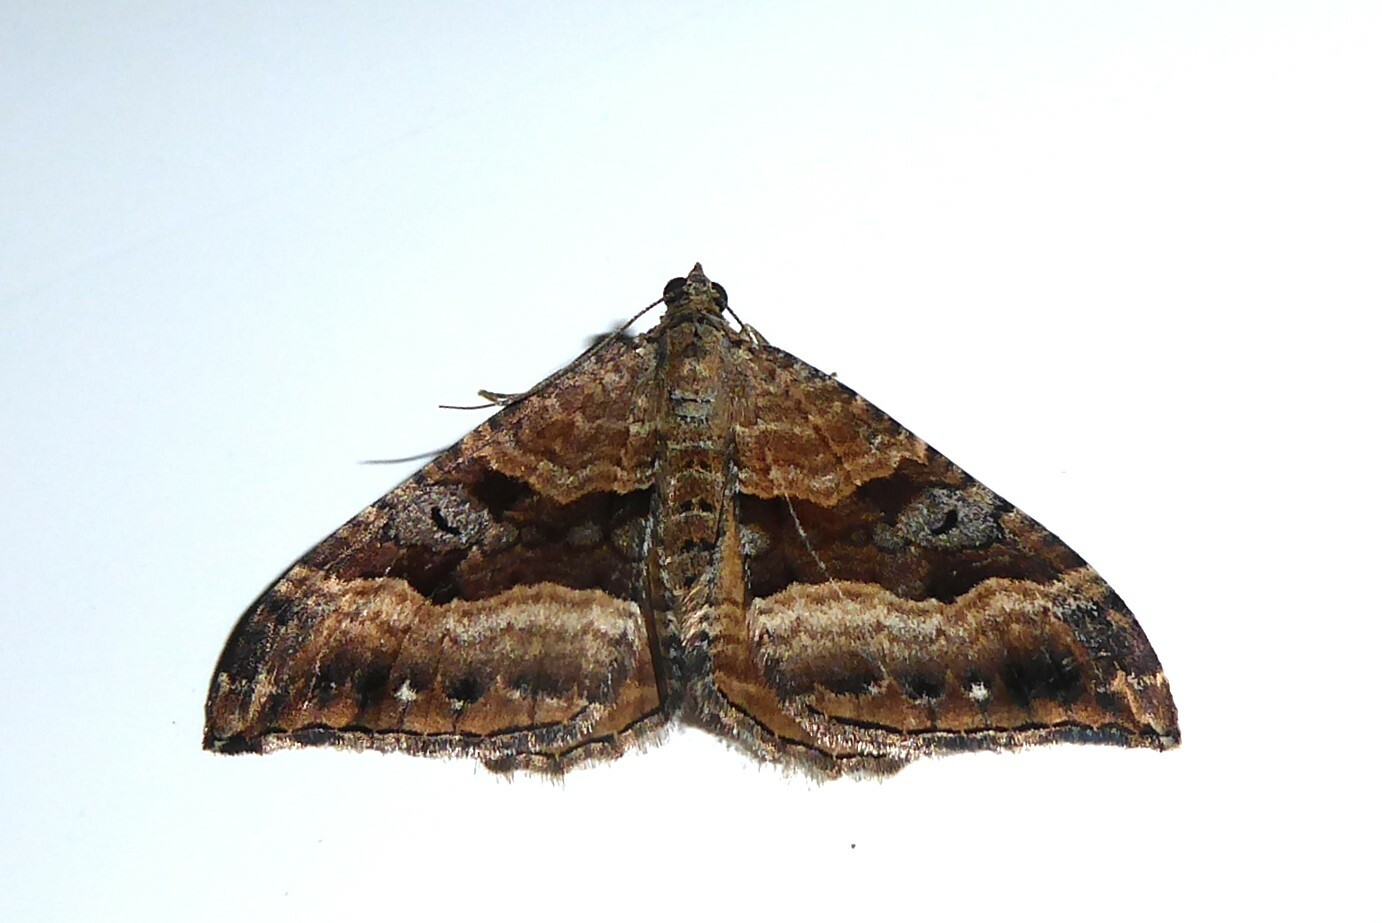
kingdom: Animalia
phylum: Arthropoda
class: Insecta
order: Lepidoptera
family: Geometridae
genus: Hydriomena
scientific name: Hydriomena deltoidata
